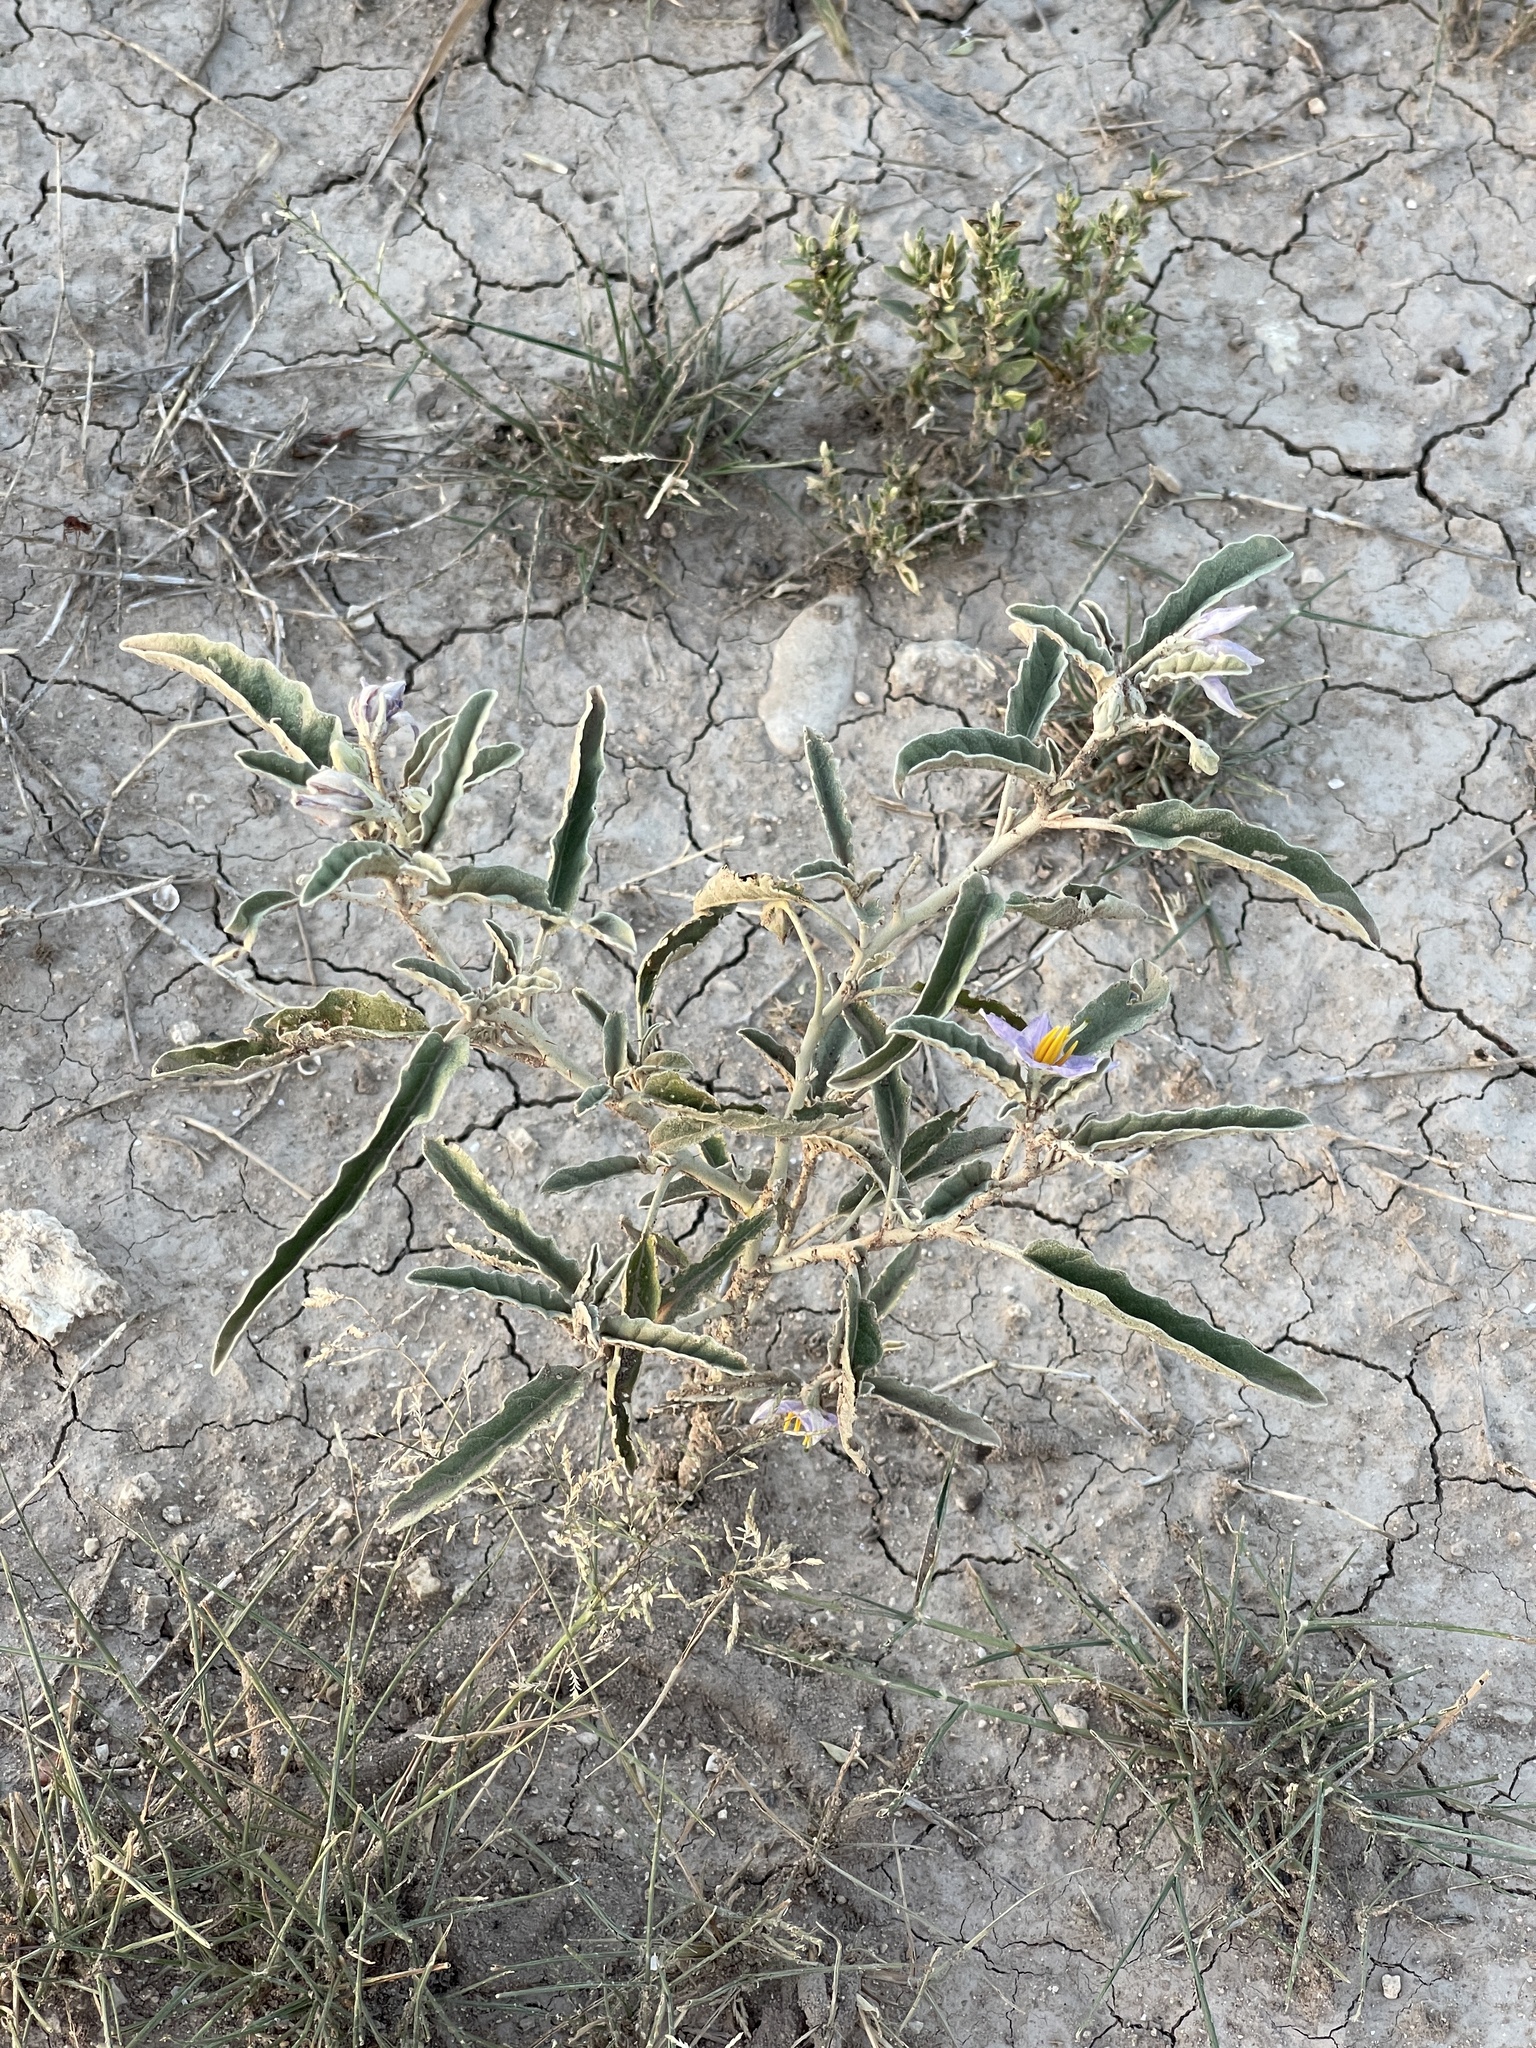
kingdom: Plantae
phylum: Tracheophyta
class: Magnoliopsida
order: Solanales
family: Solanaceae
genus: Solanum
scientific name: Solanum elaeagnifolium
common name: Silverleaf nightshade
